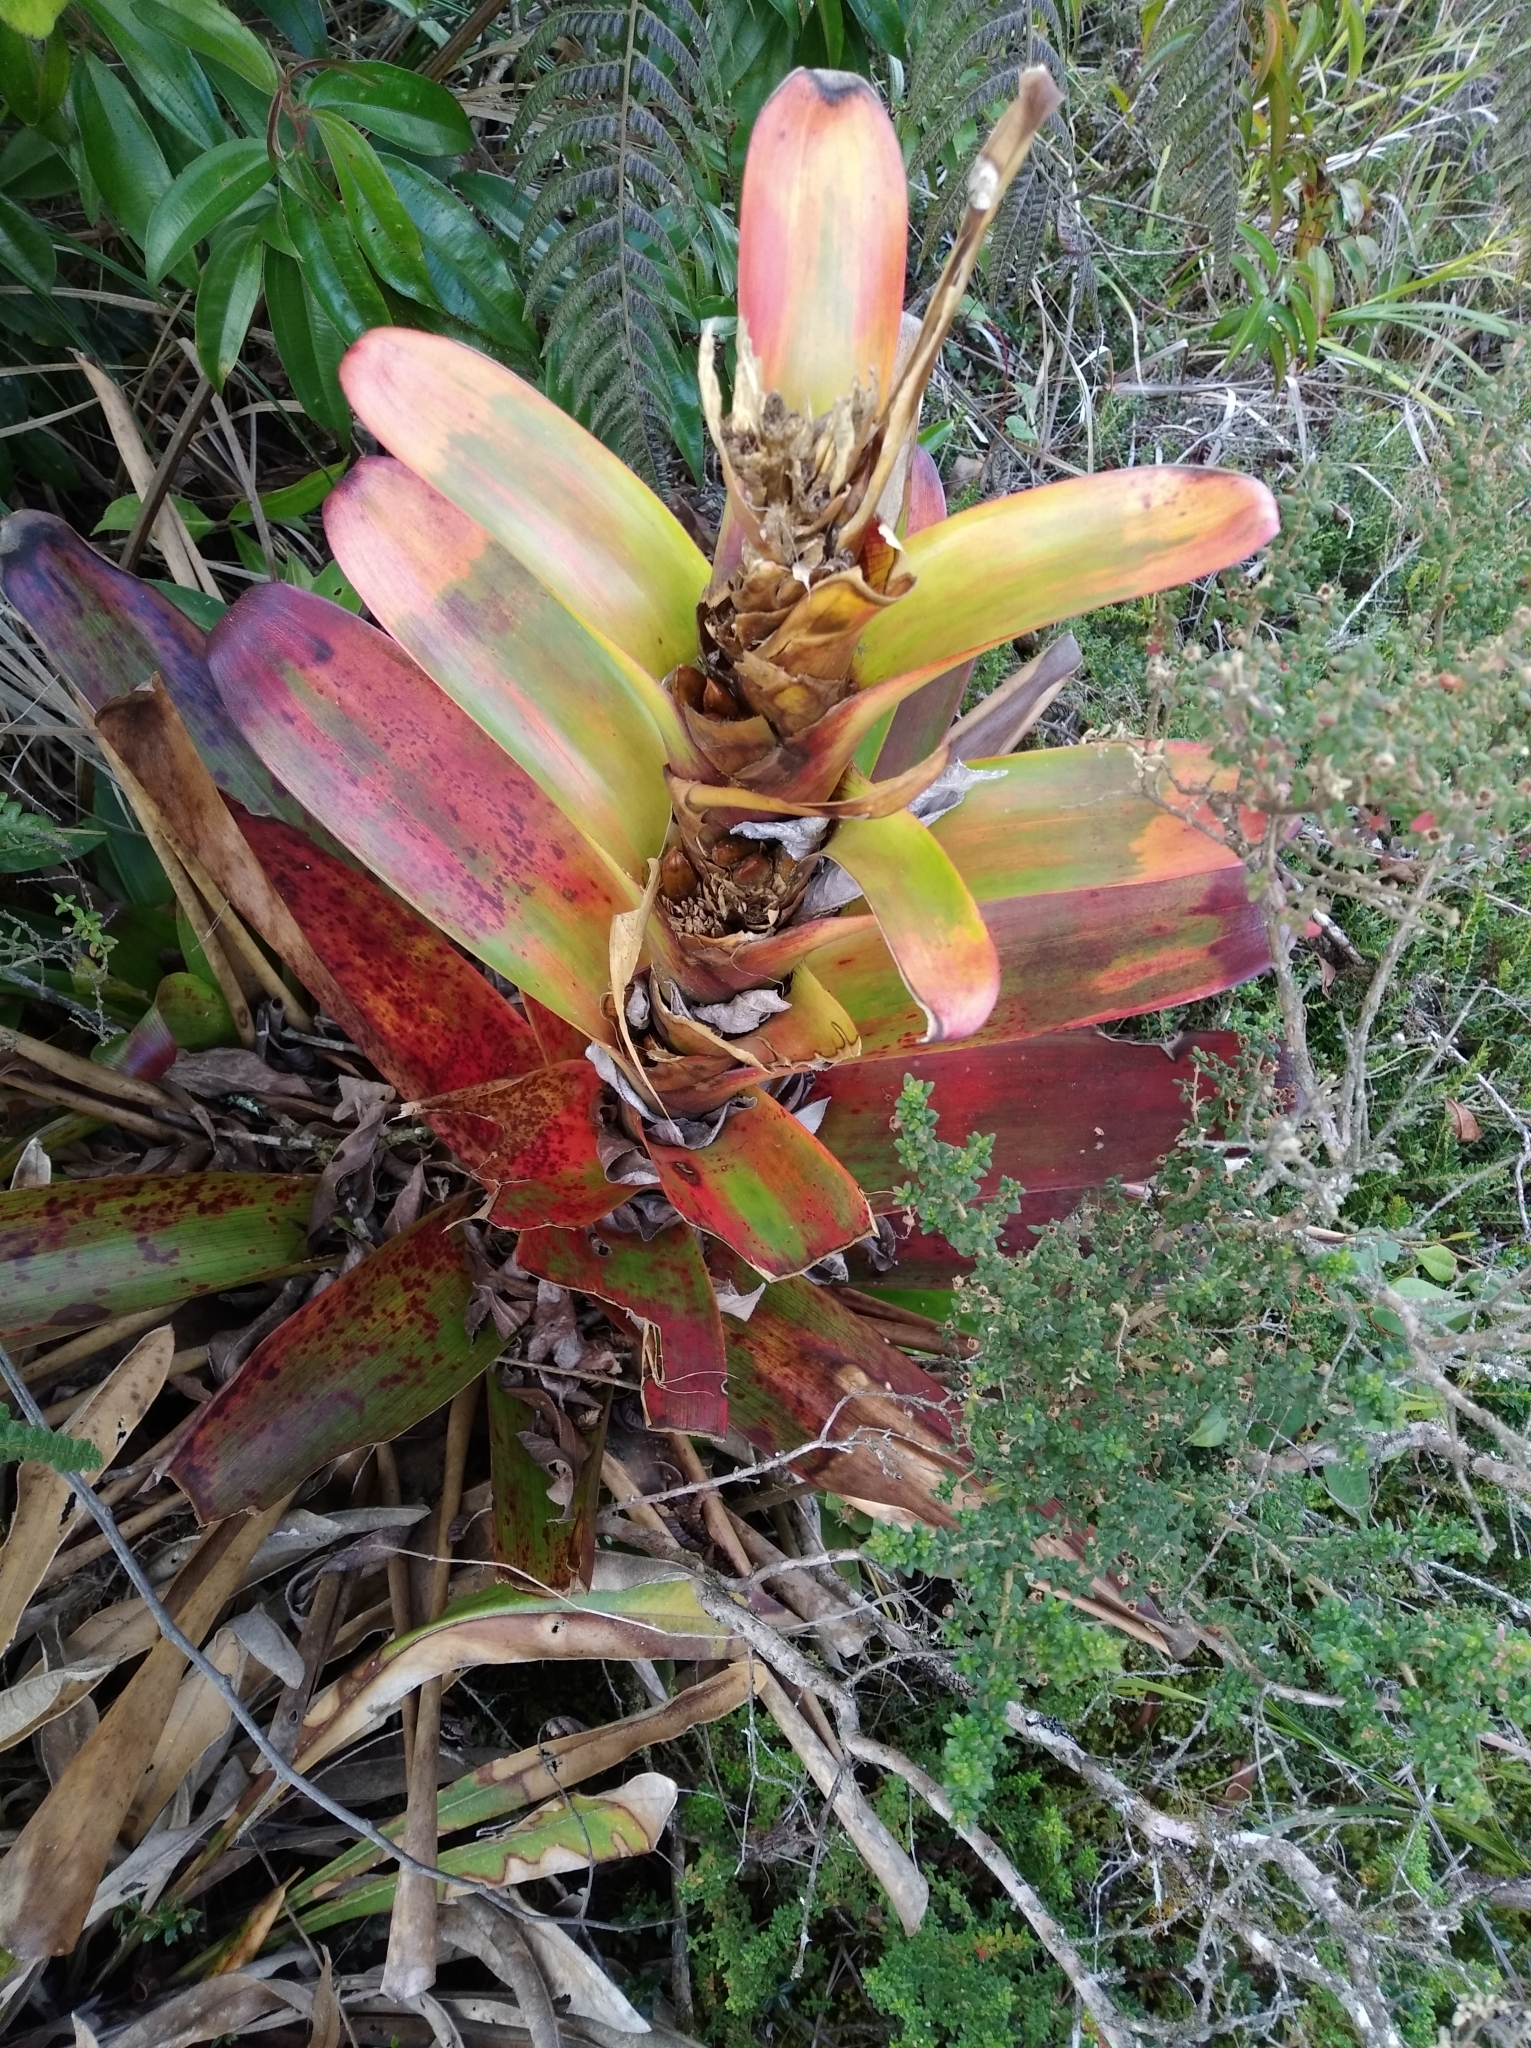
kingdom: Plantae
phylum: Tracheophyta
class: Liliopsida
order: Poales
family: Bromeliaceae
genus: Guzmania
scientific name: Guzmania gloriosa
